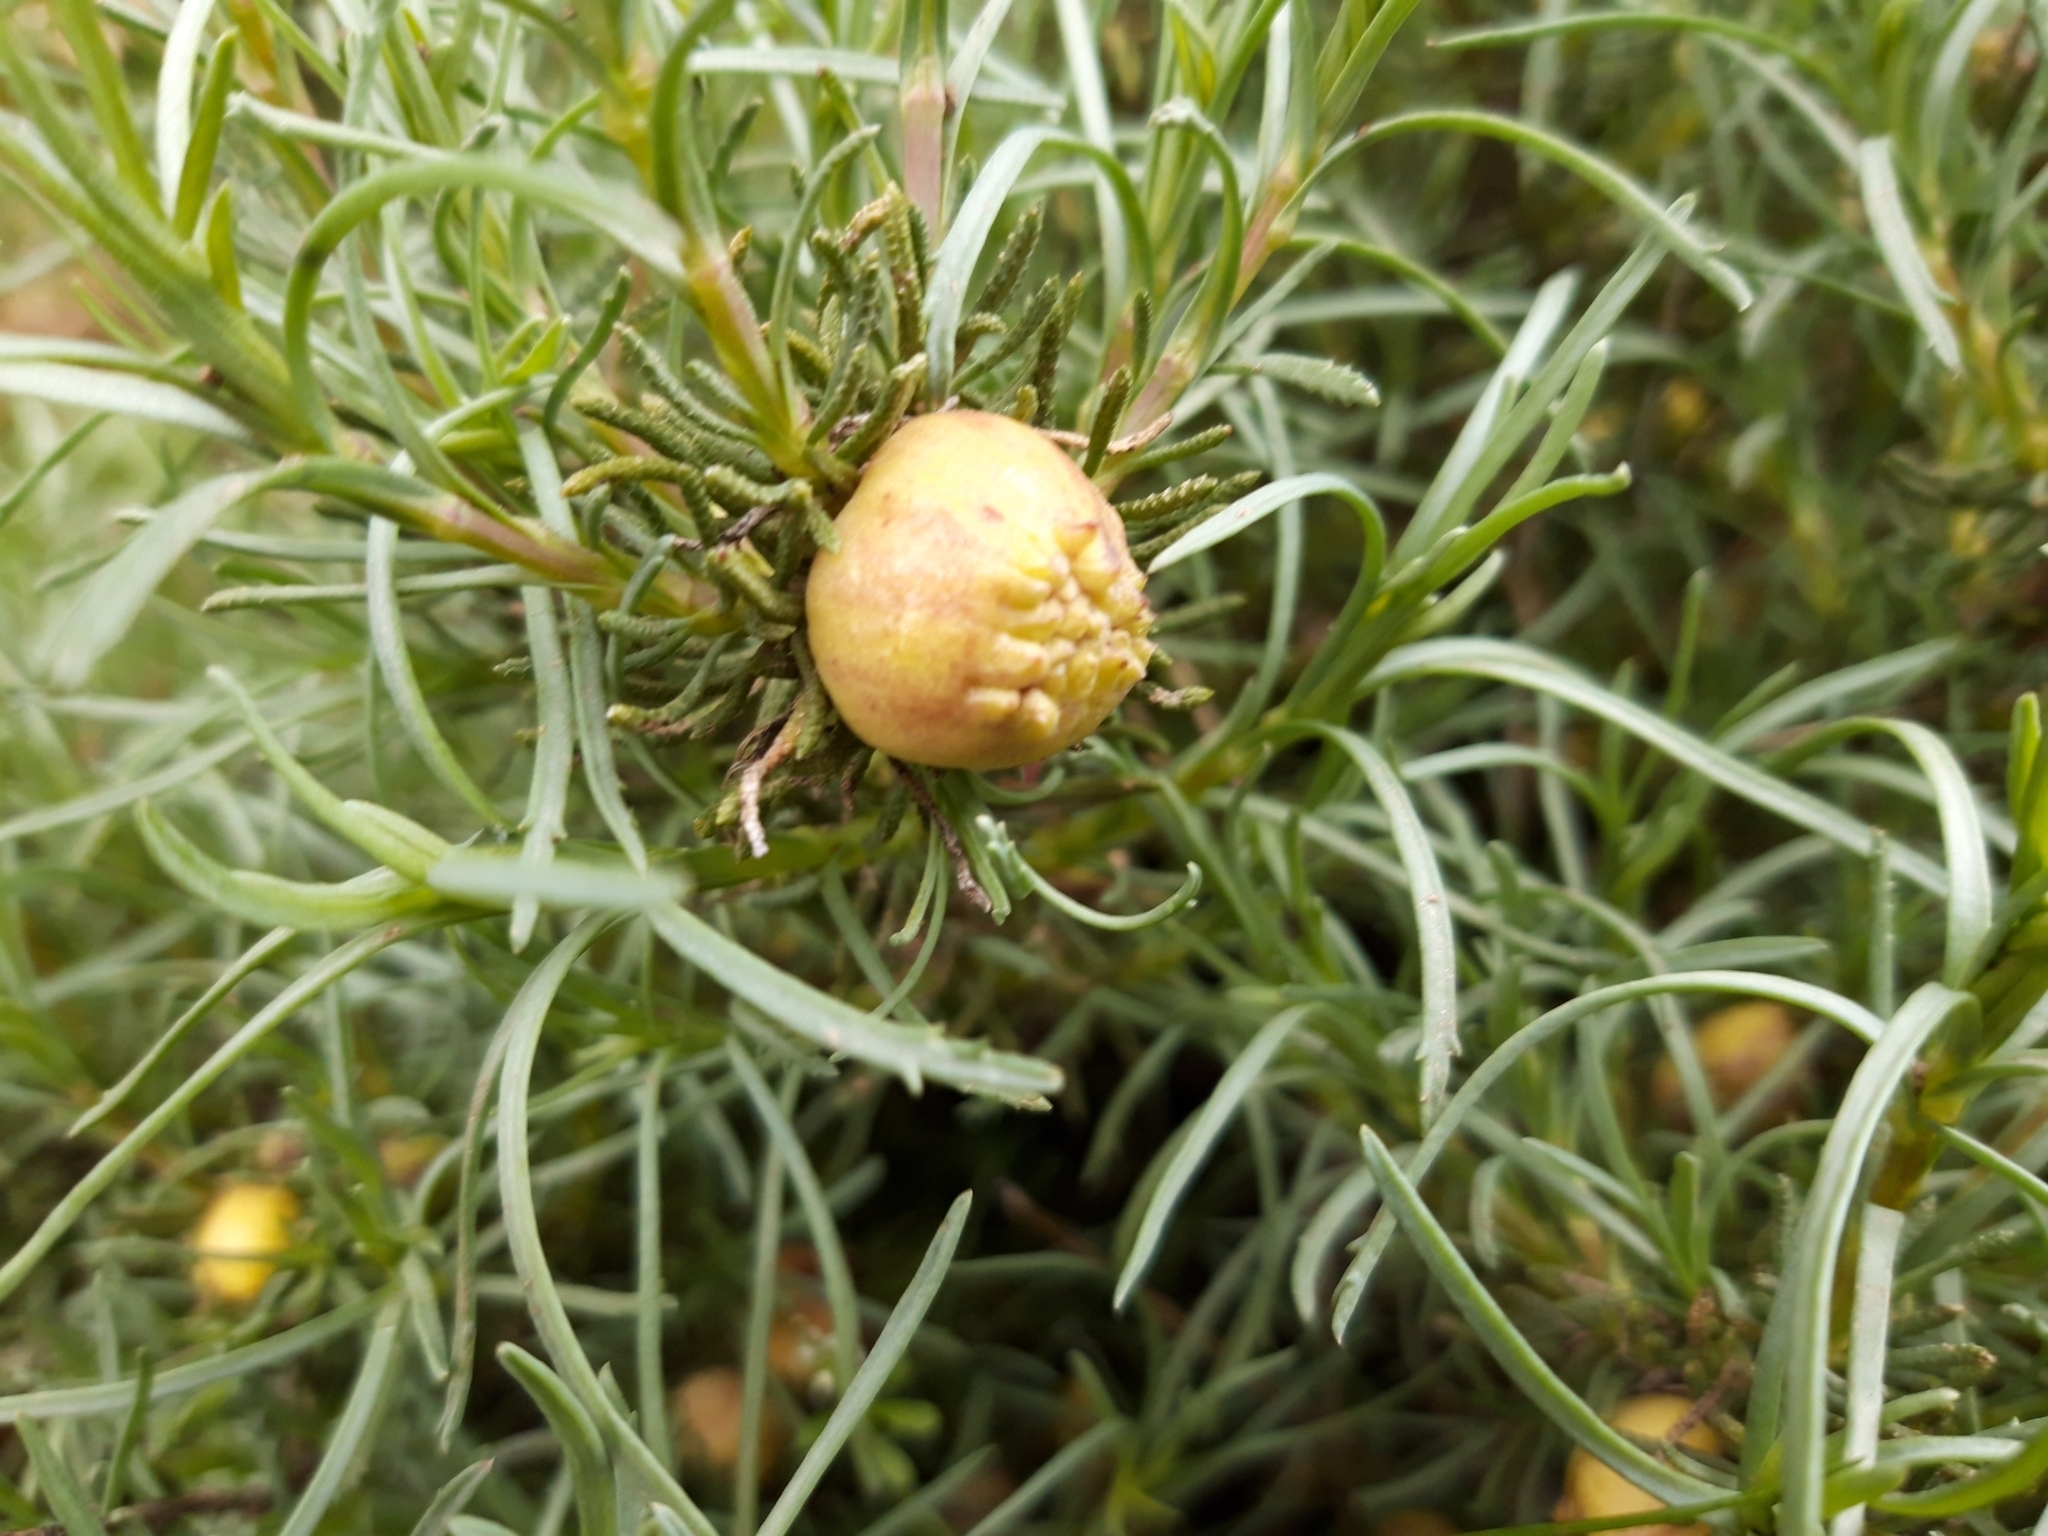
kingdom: Animalia
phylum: Arthropoda
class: Insecta
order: Diptera
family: Cecidomyiidae
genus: Rhopalomyia
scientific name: Rhopalomyia santolinae
